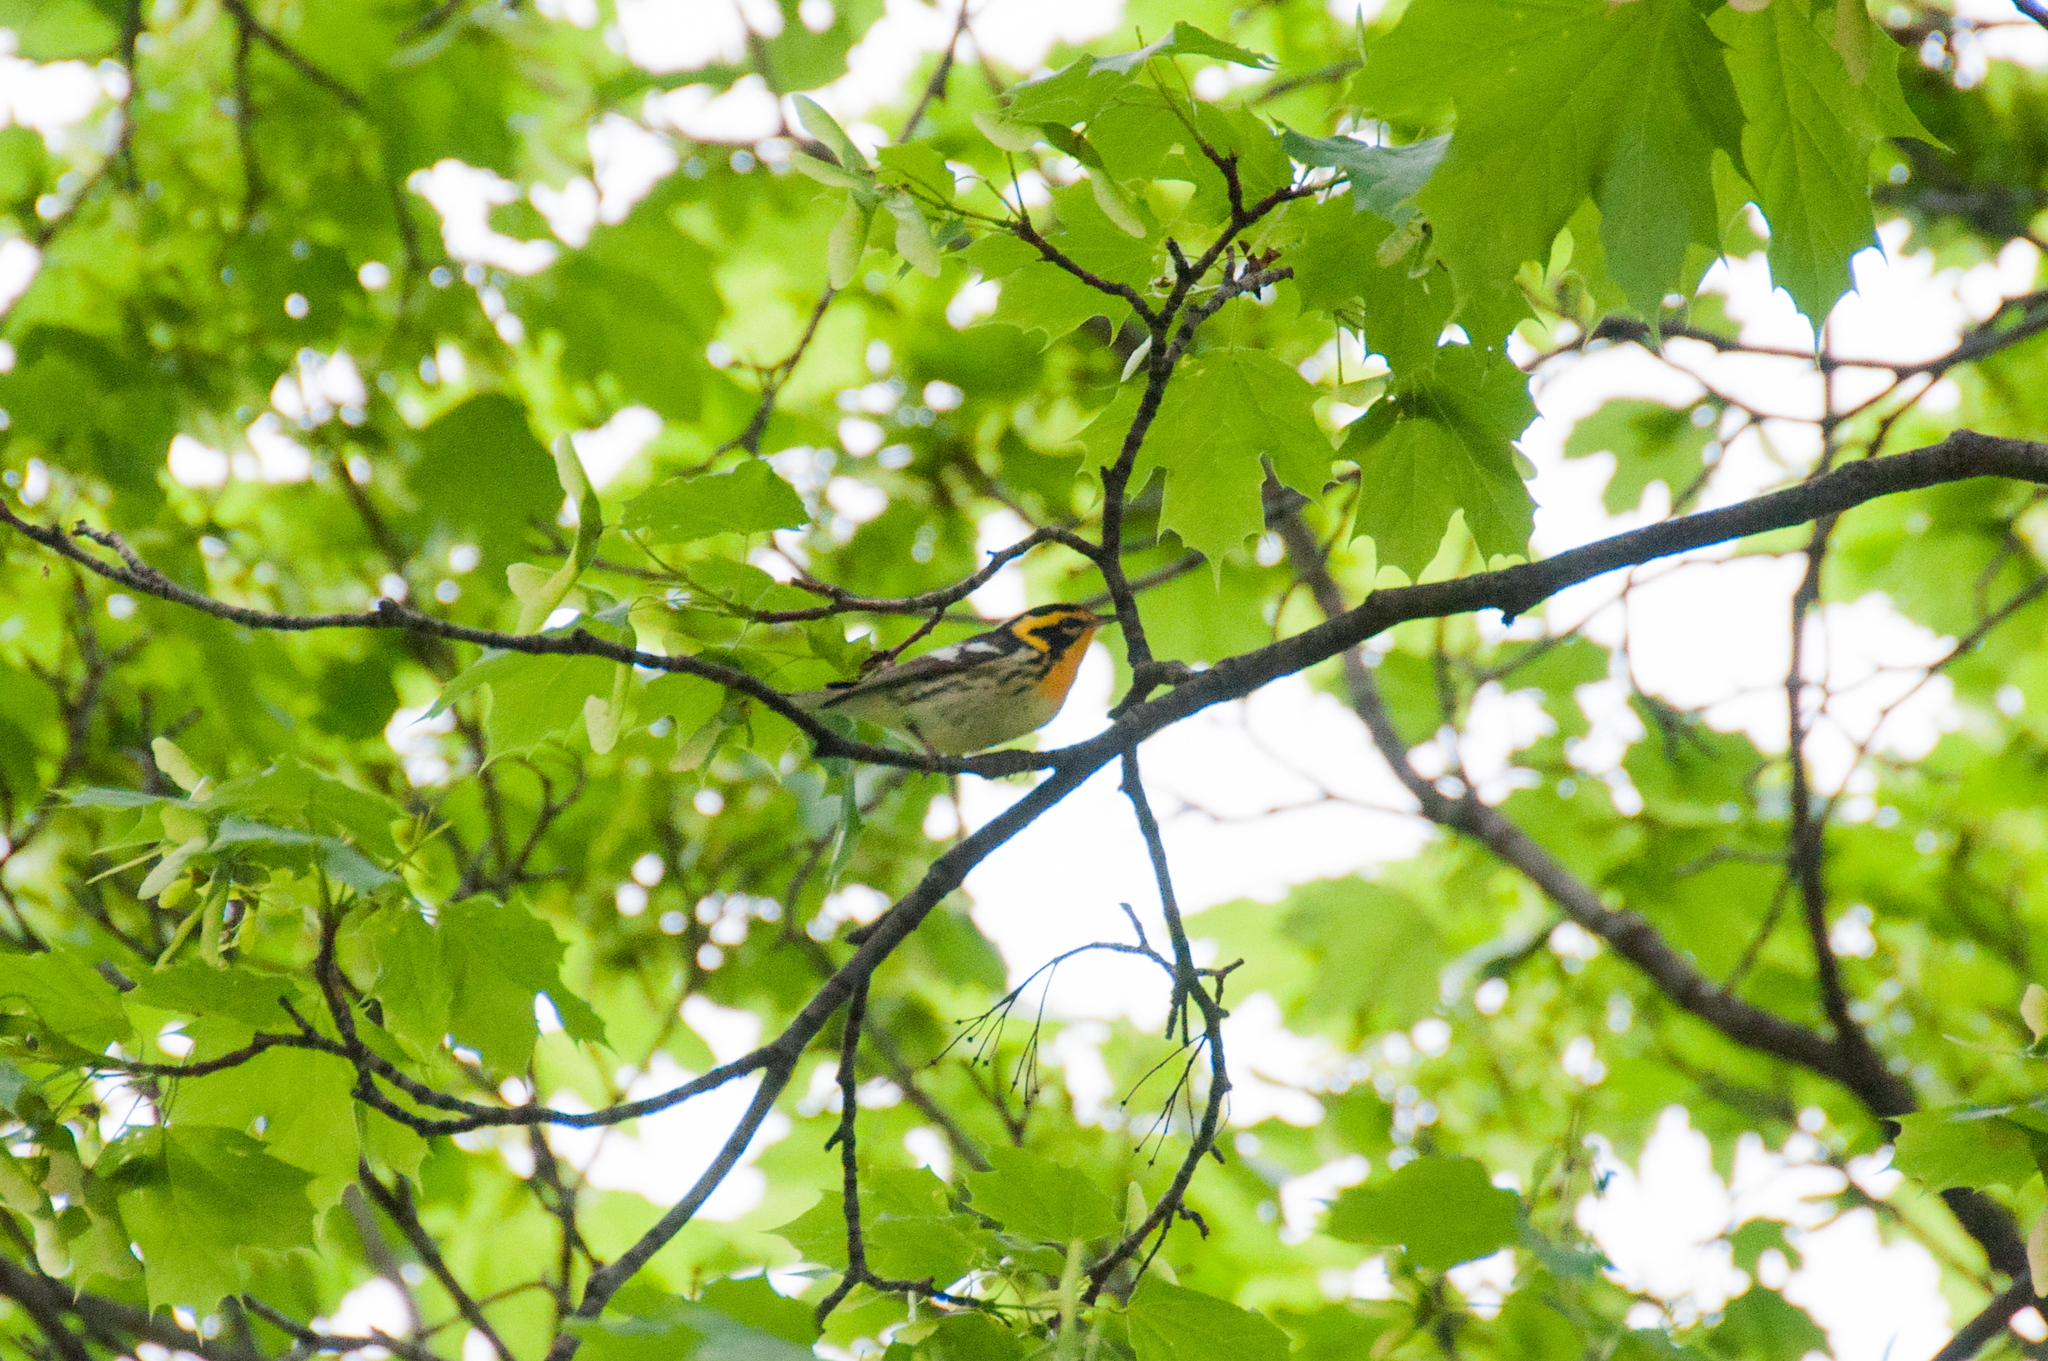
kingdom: Animalia
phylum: Chordata
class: Aves
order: Passeriformes
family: Parulidae
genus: Setophaga
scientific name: Setophaga fusca
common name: Blackburnian warbler
